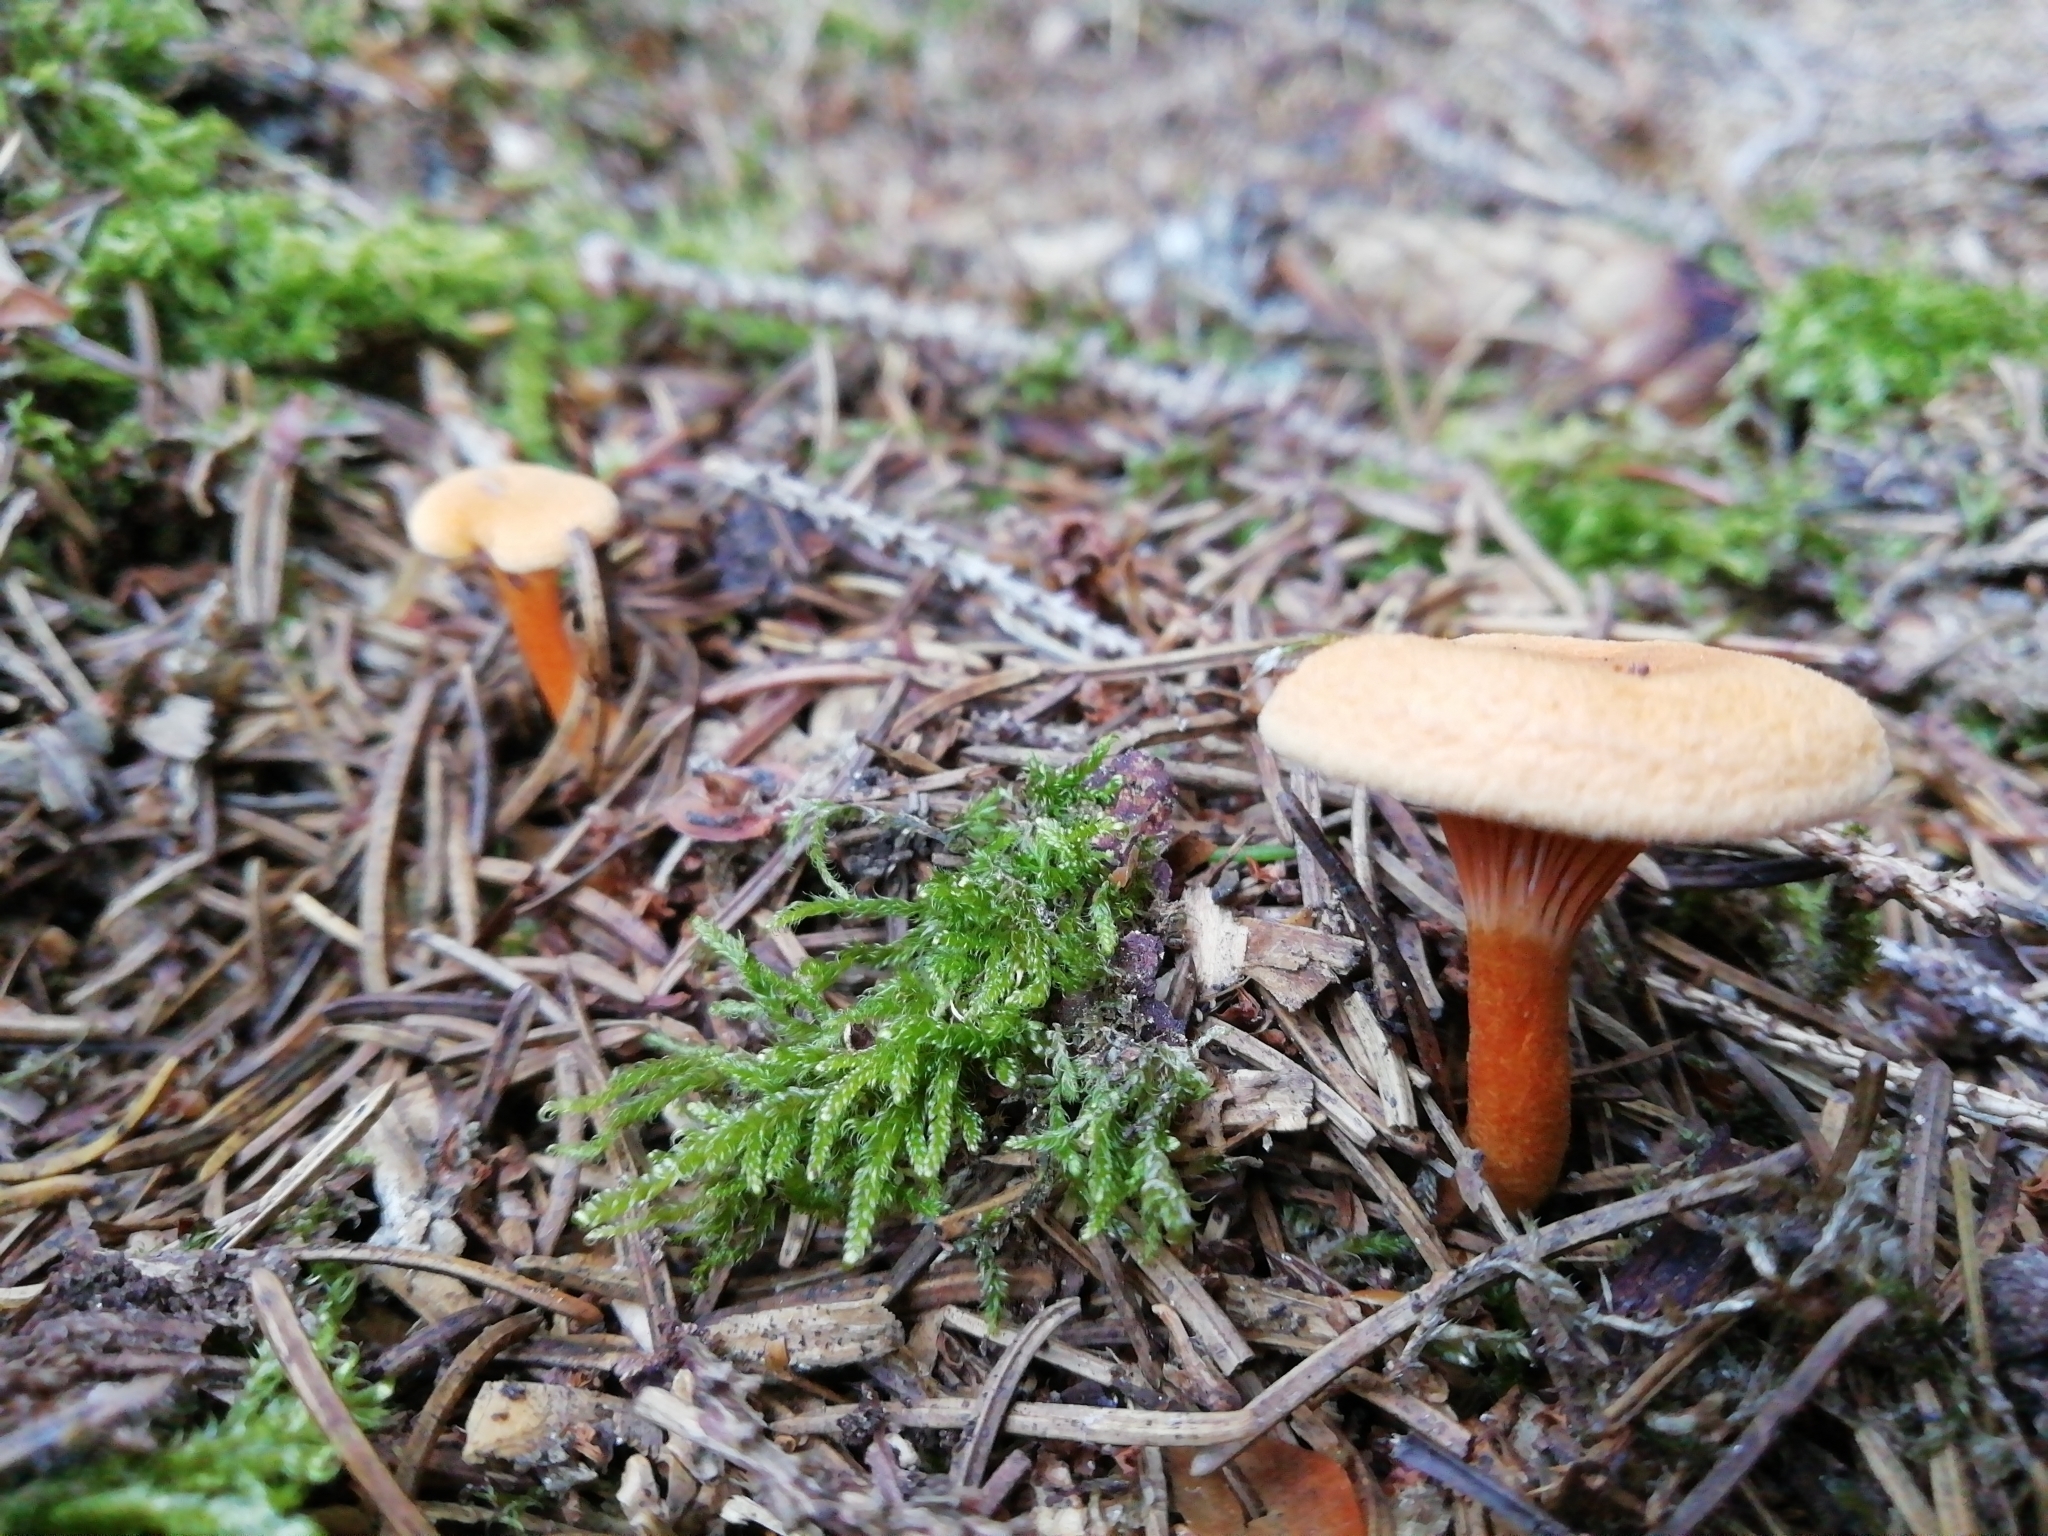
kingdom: Fungi
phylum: Basidiomycota
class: Agaricomycetes
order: Boletales
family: Hygrophoropsidaceae
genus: Hygrophoropsis
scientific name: Hygrophoropsis aurantiaca
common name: False chanterelle
